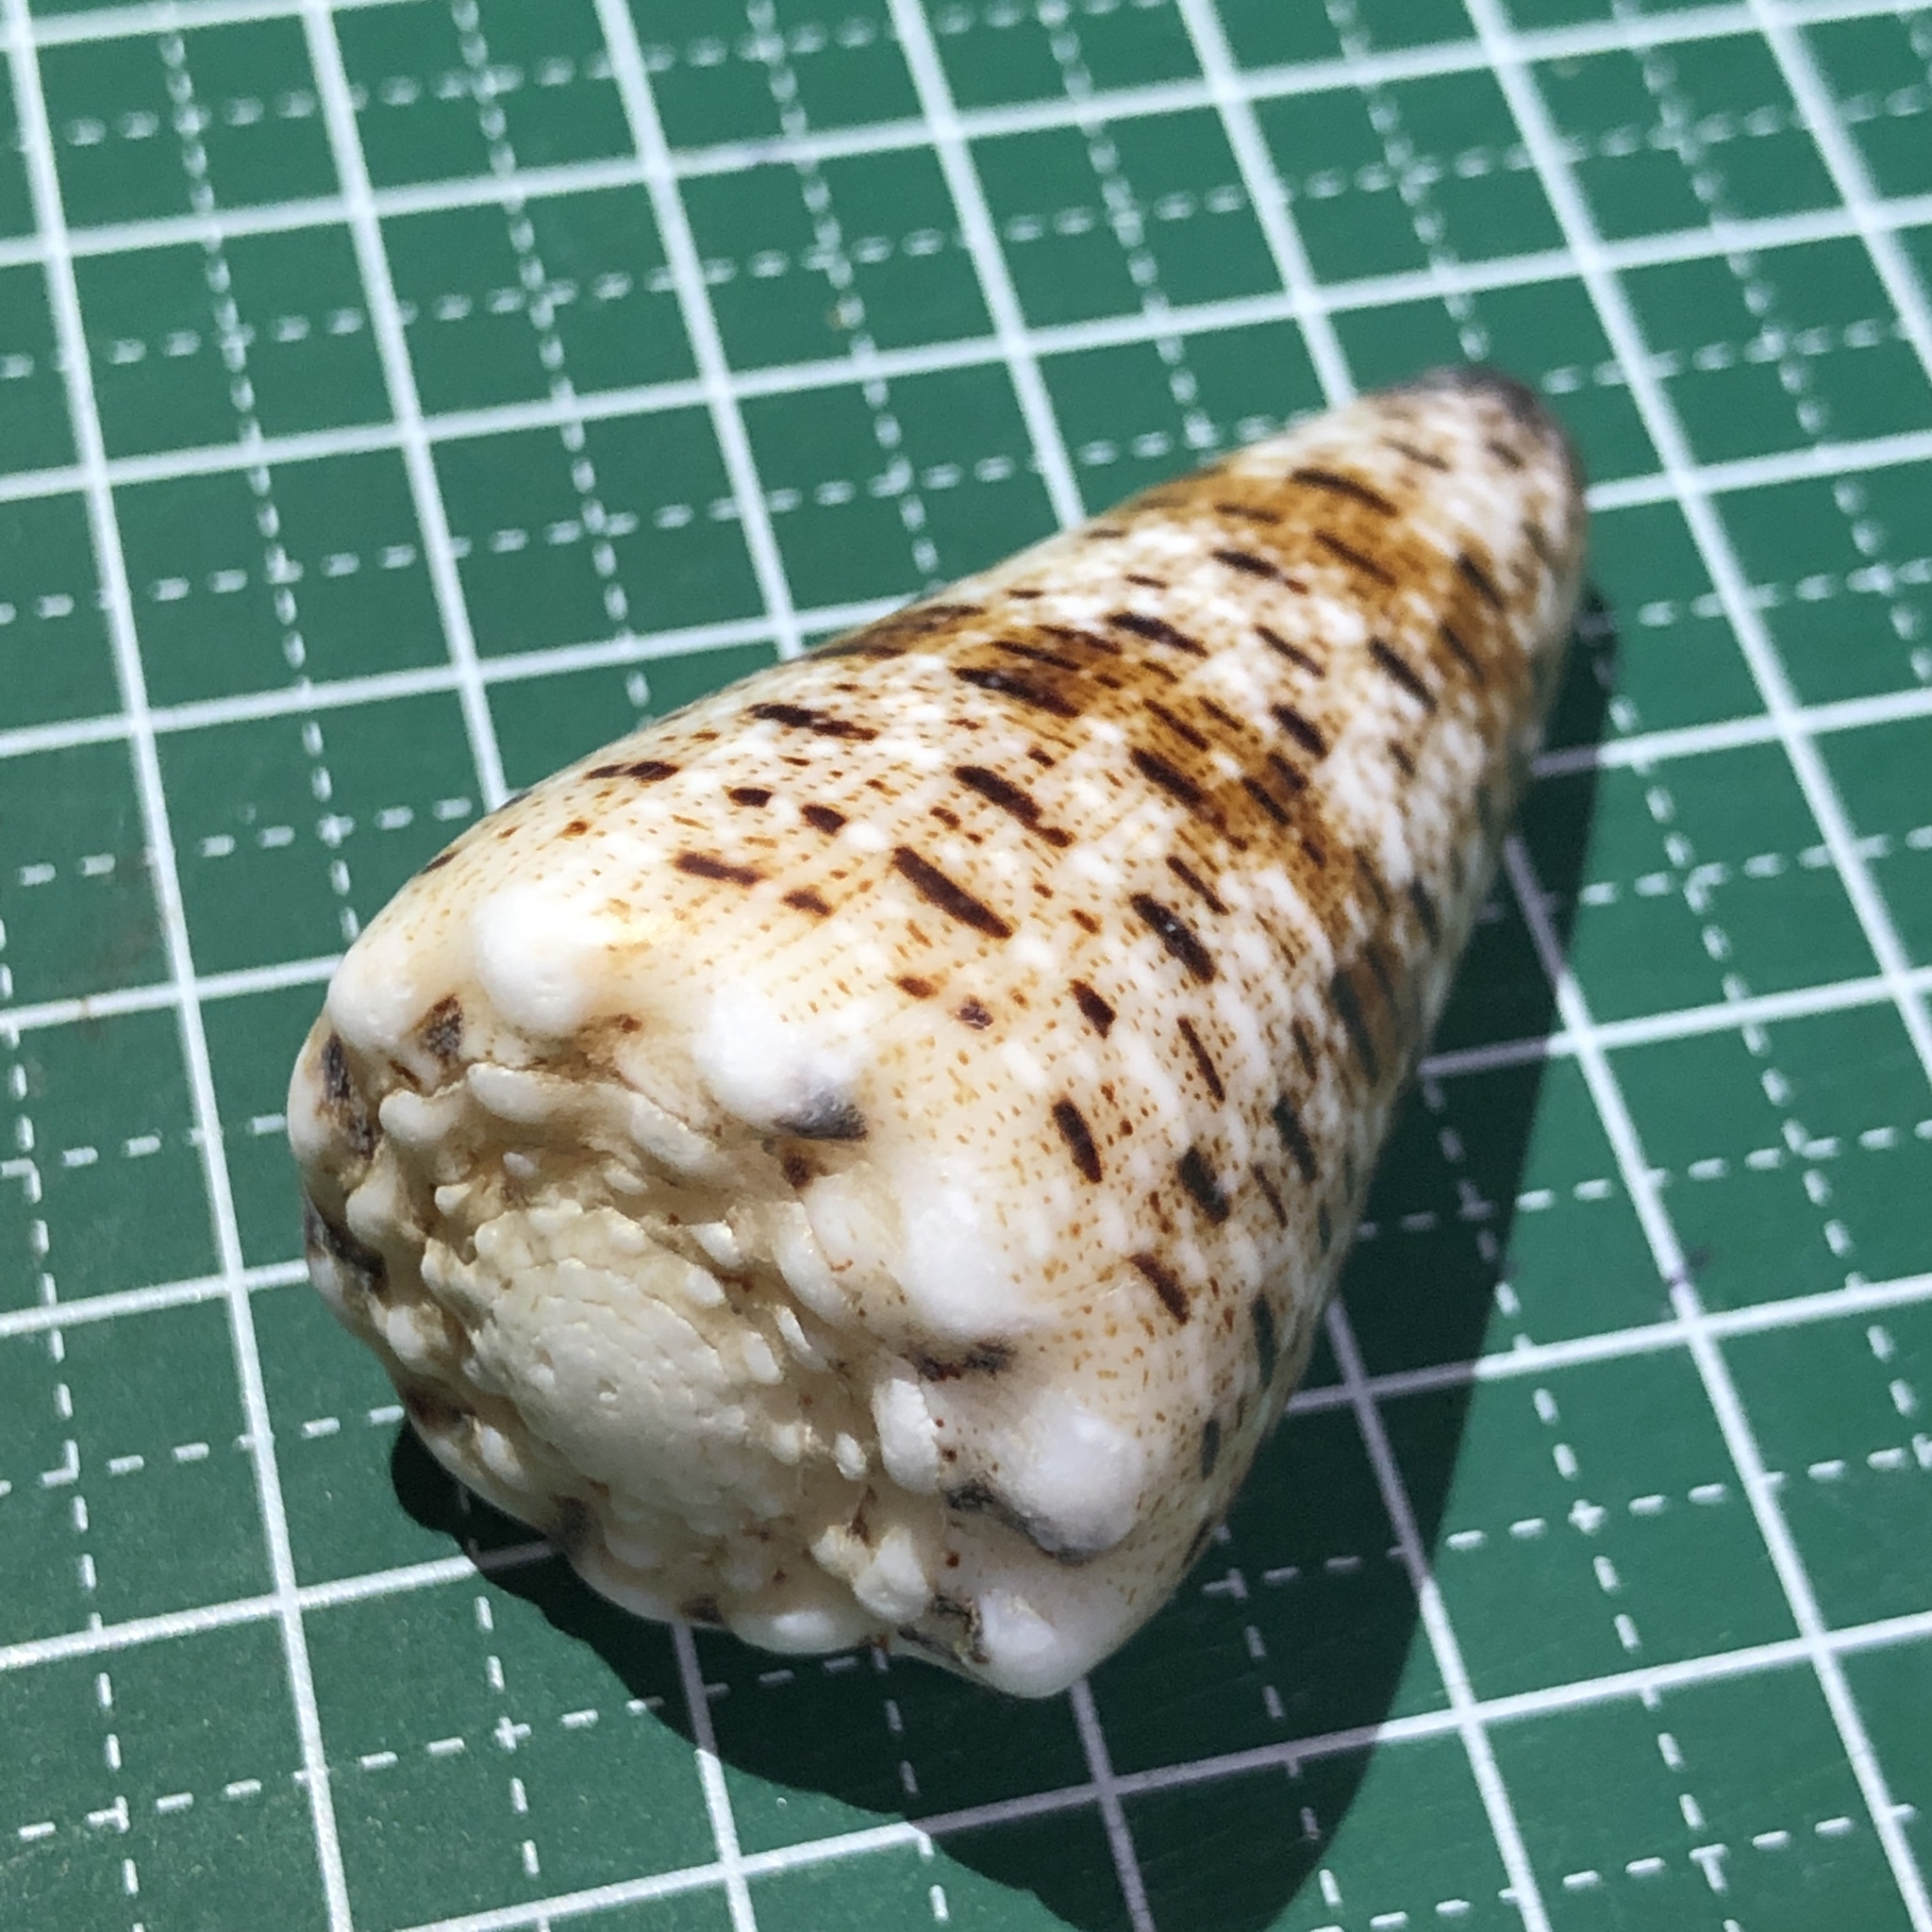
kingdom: Animalia
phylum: Mollusca
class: Gastropoda
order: Neogastropoda
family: Conidae
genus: Conus
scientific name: Conus imperialis
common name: Imperial cone
